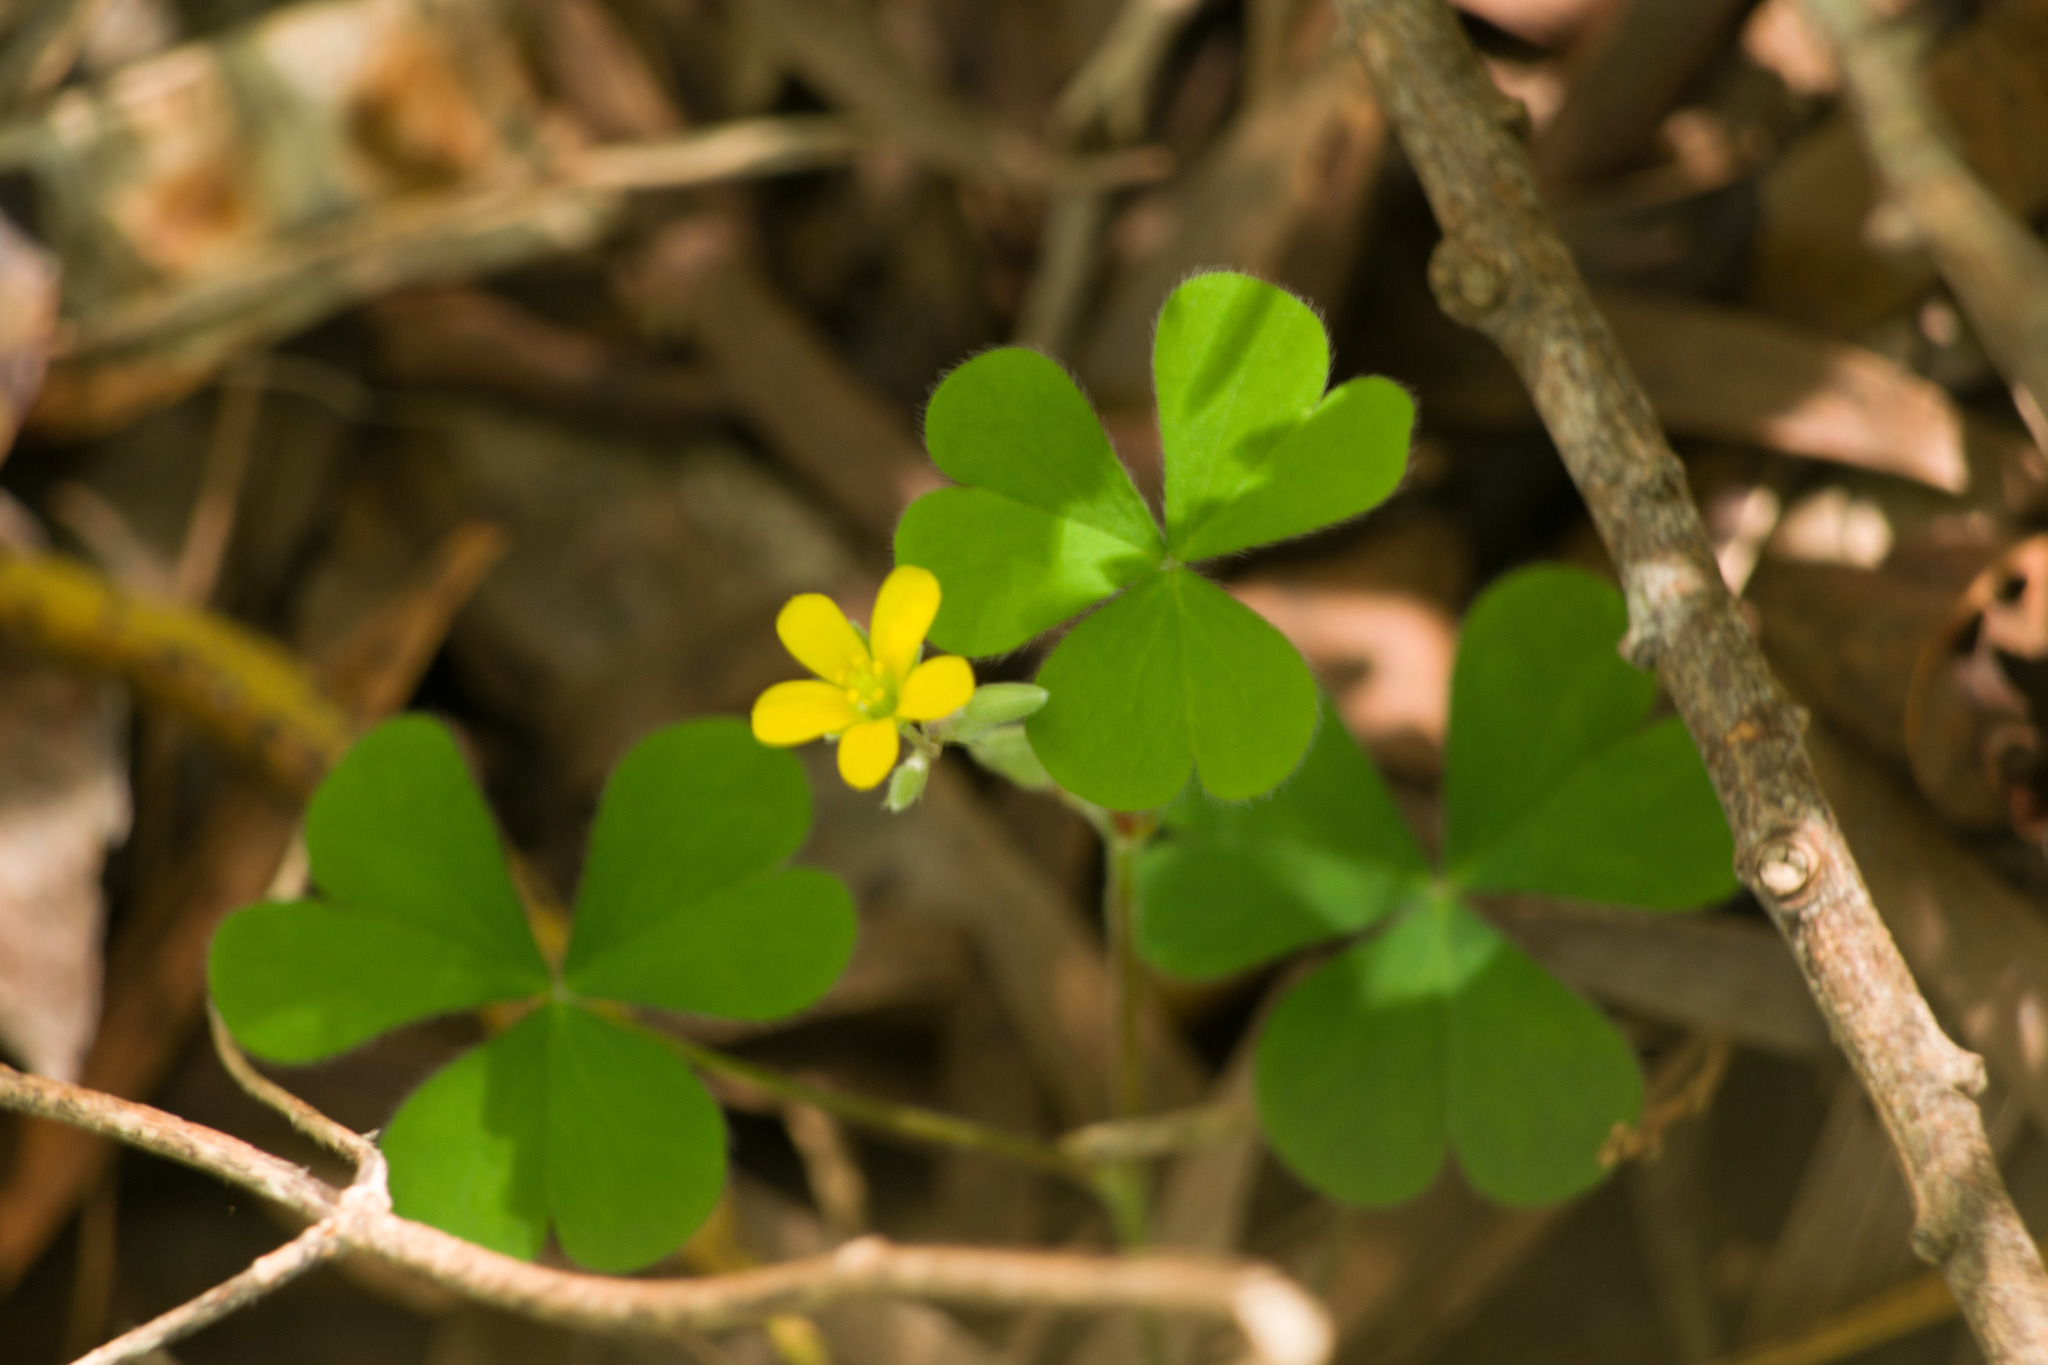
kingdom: Plantae
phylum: Tracheophyta
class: Magnoliopsida
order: Oxalidales
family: Oxalidaceae
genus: Oxalis
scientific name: Oxalis corniculata
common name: Procumbent yellow-sorrel
